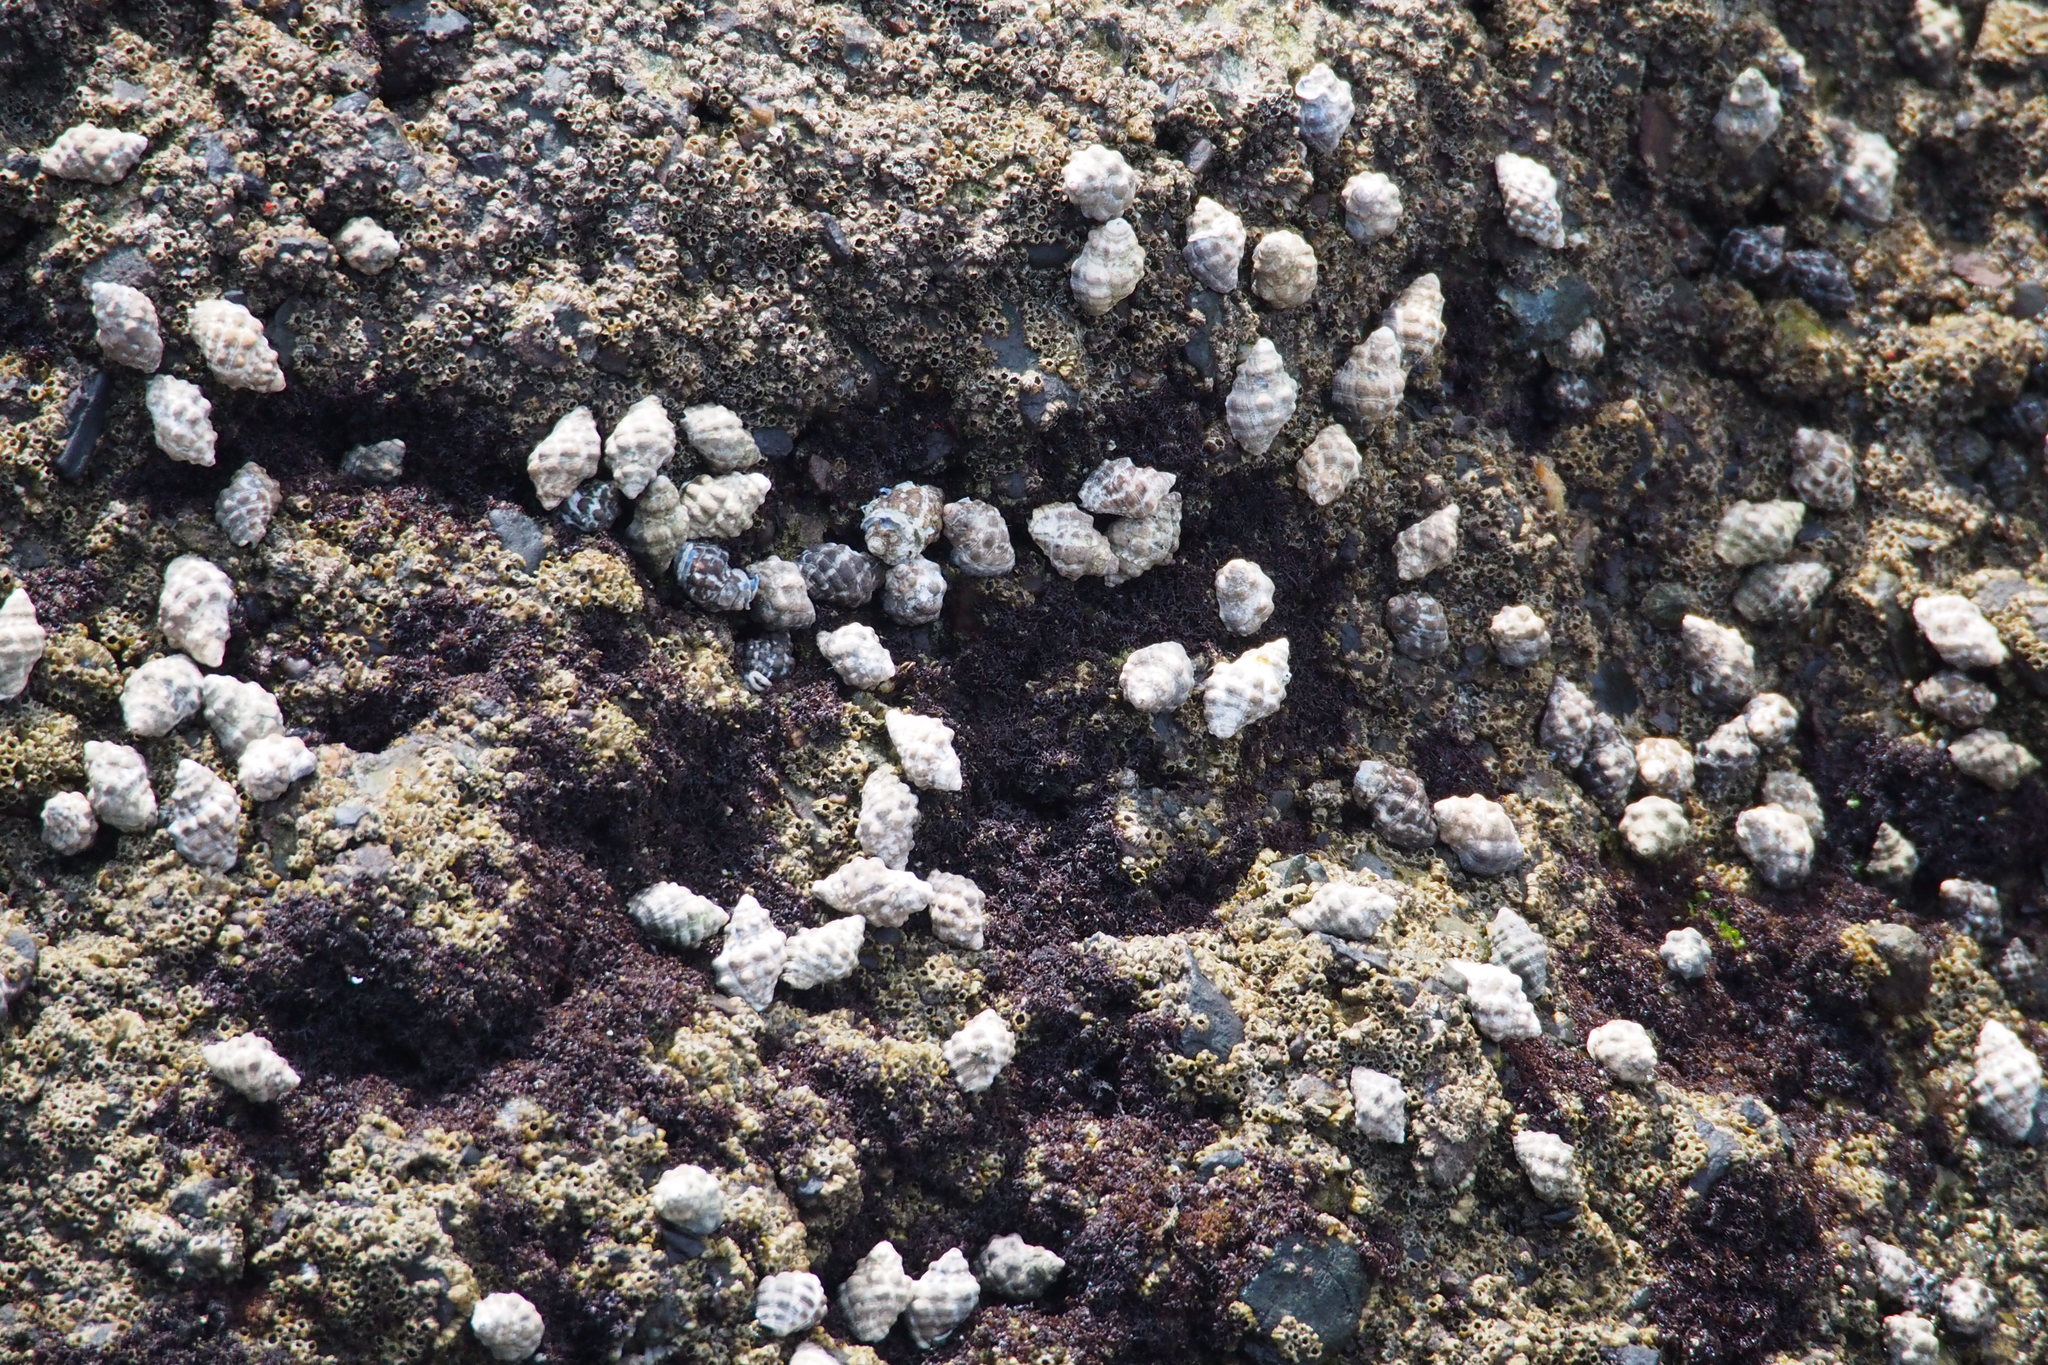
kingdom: Animalia
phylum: Mollusca
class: Gastropoda
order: Neogastropoda
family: Muricidae
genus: Reishia
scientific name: Reishia clavigera
